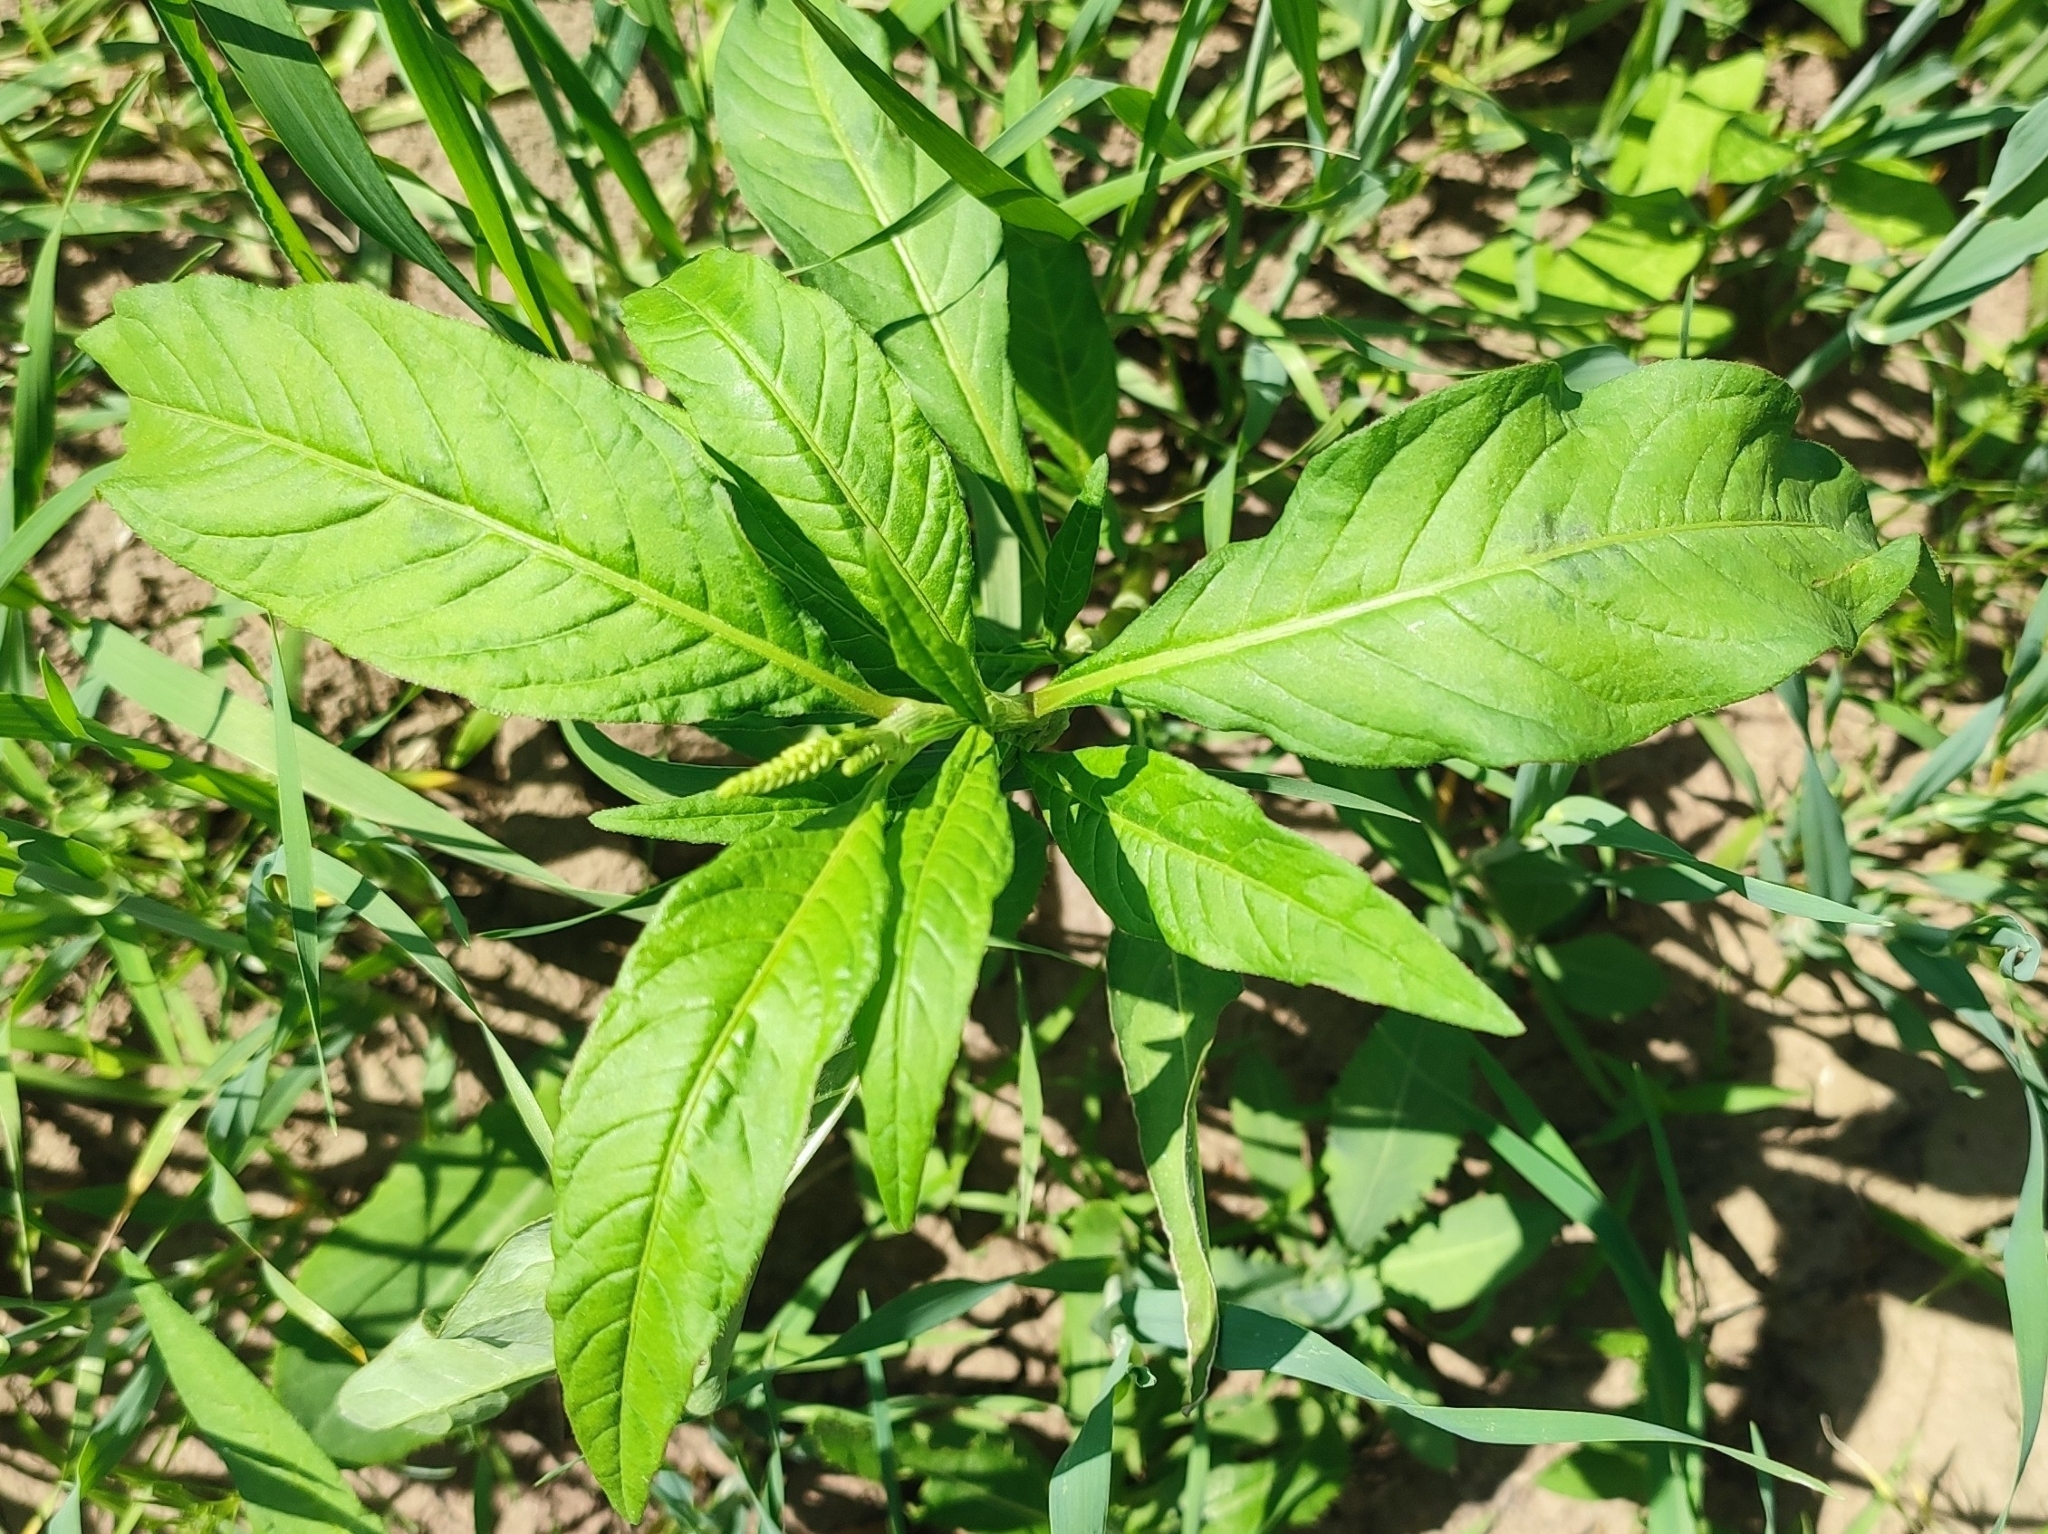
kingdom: Plantae
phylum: Tracheophyta
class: Magnoliopsida
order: Caryophyllales
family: Polygonaceae
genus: Persicaria
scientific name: Persicaria lapathifolia
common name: Curlytop knotweed
